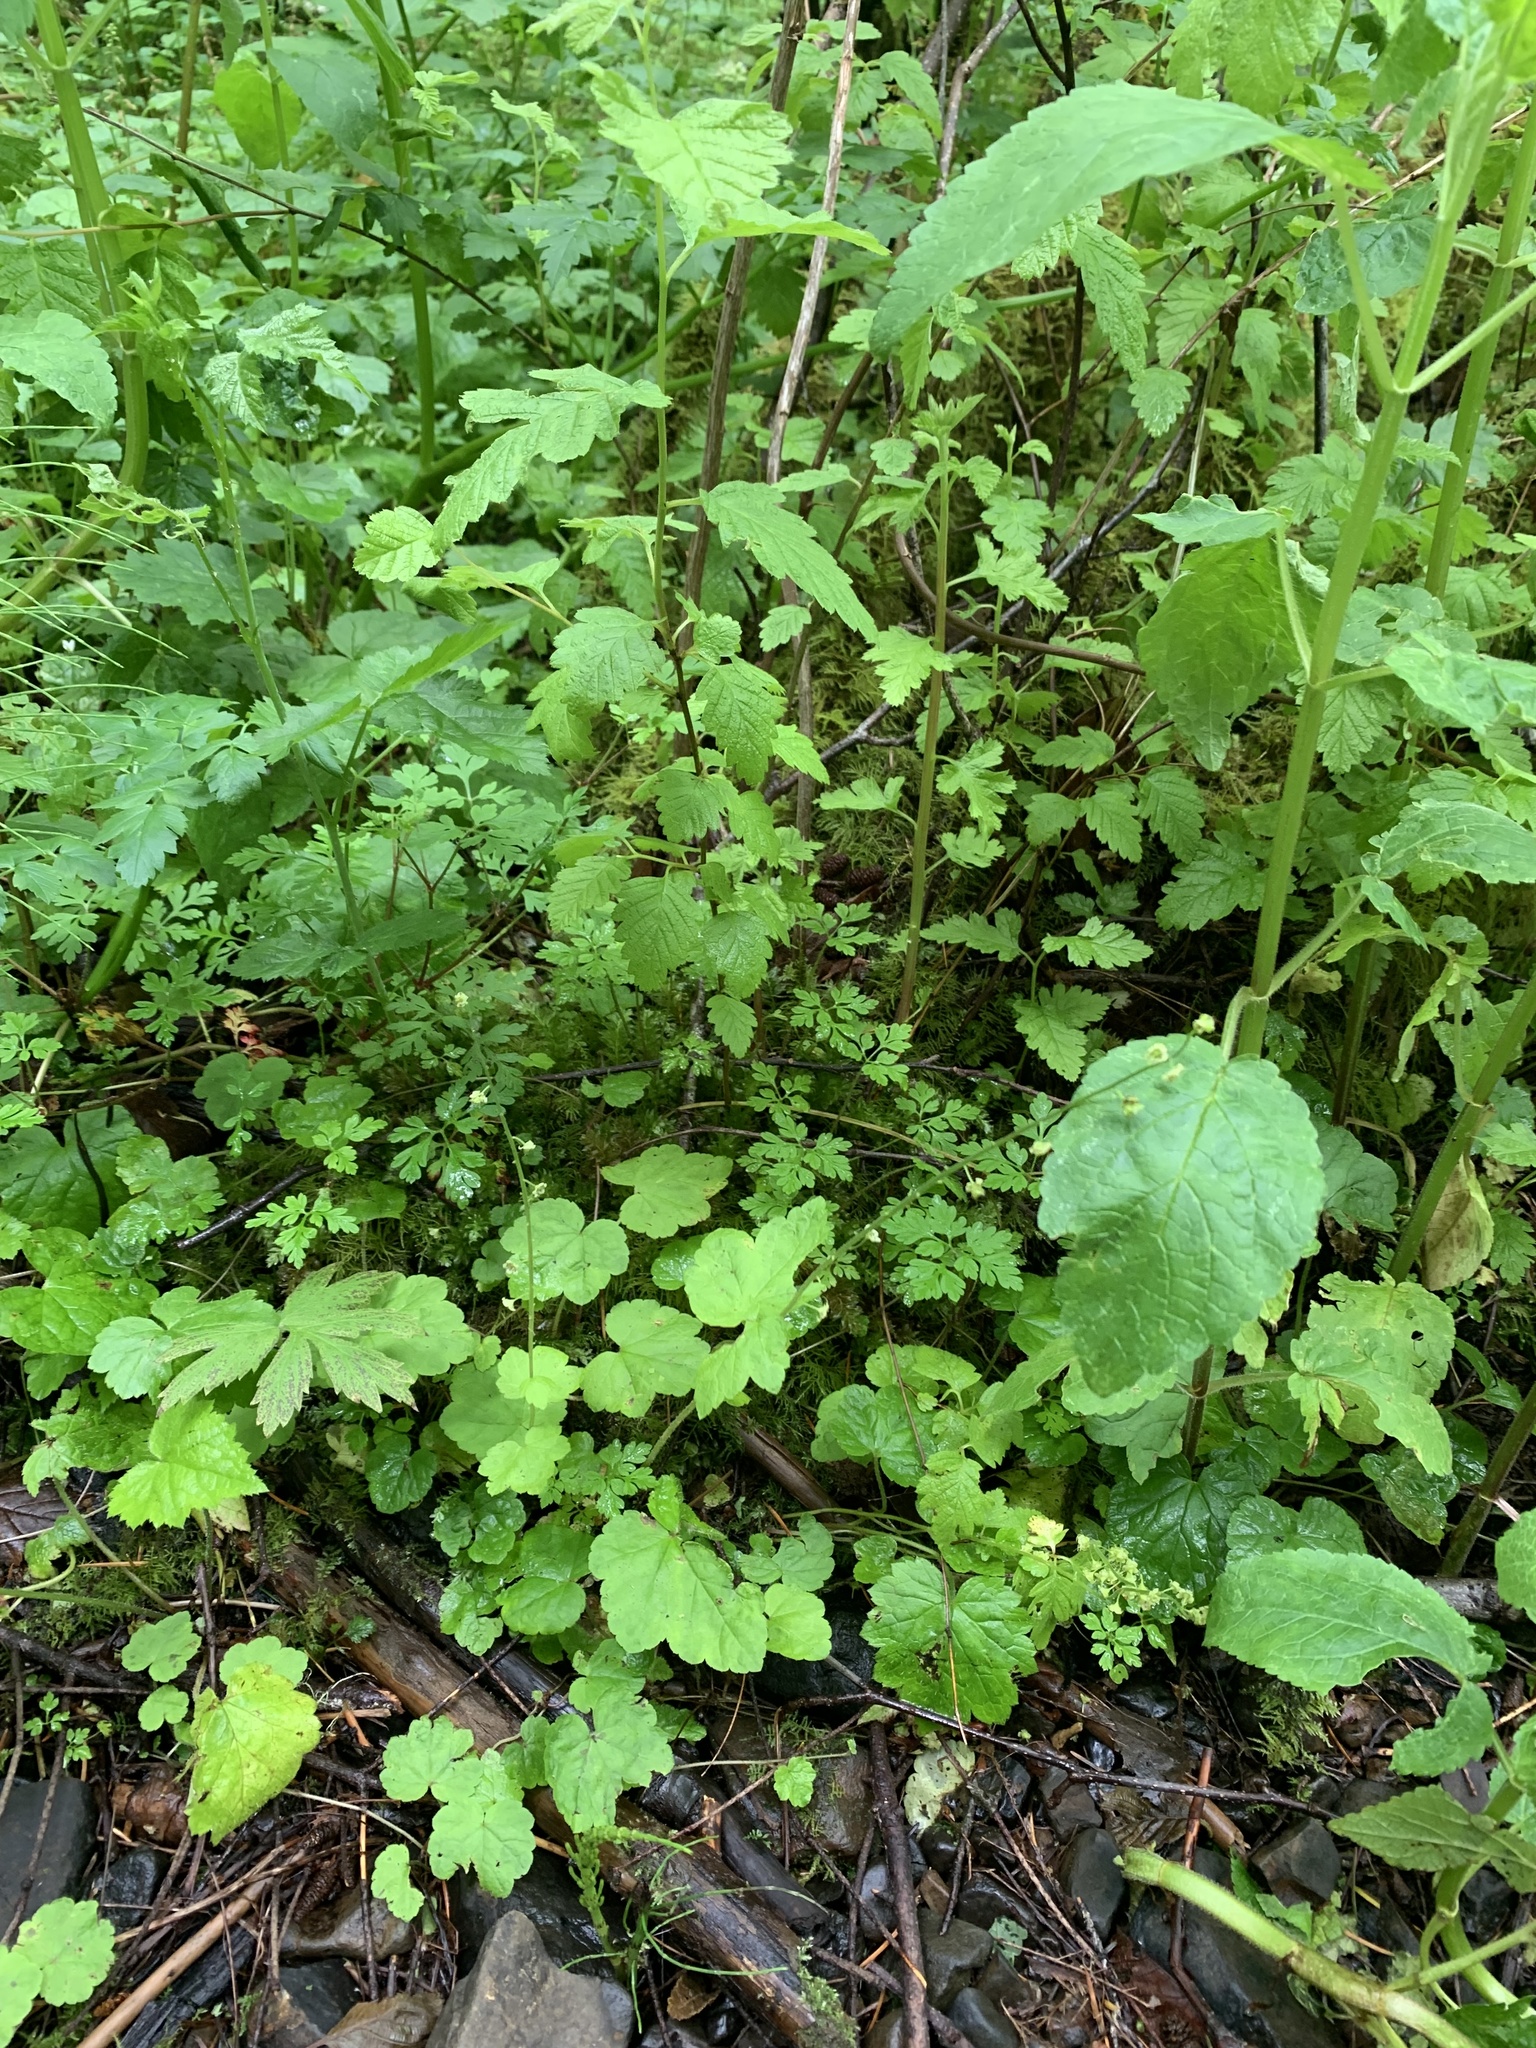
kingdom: Plantae
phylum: Tracheophyta
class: Magnoliopsida
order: Saxifragales
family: Saxifragaceae
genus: Mitellastra
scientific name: Mitellastra caulescens
